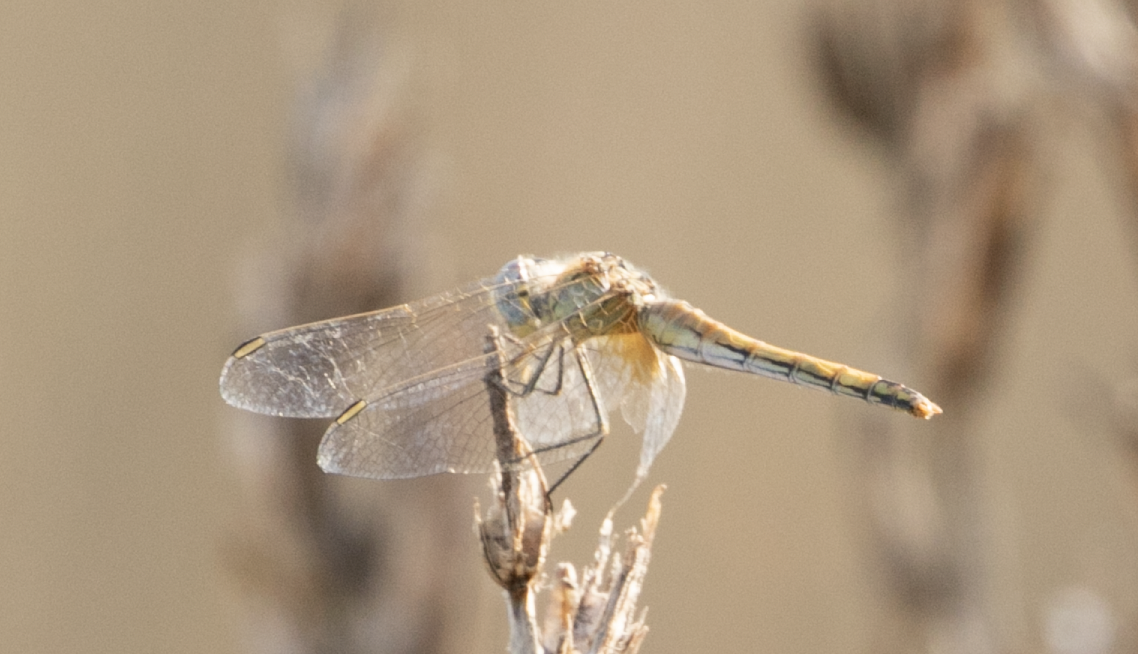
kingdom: Animalia
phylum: Arthropoda
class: Insecta
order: Odonata
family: Libellulidae
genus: Sympetrum
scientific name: Sympetrum fonscolombii
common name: Red-veined darter
